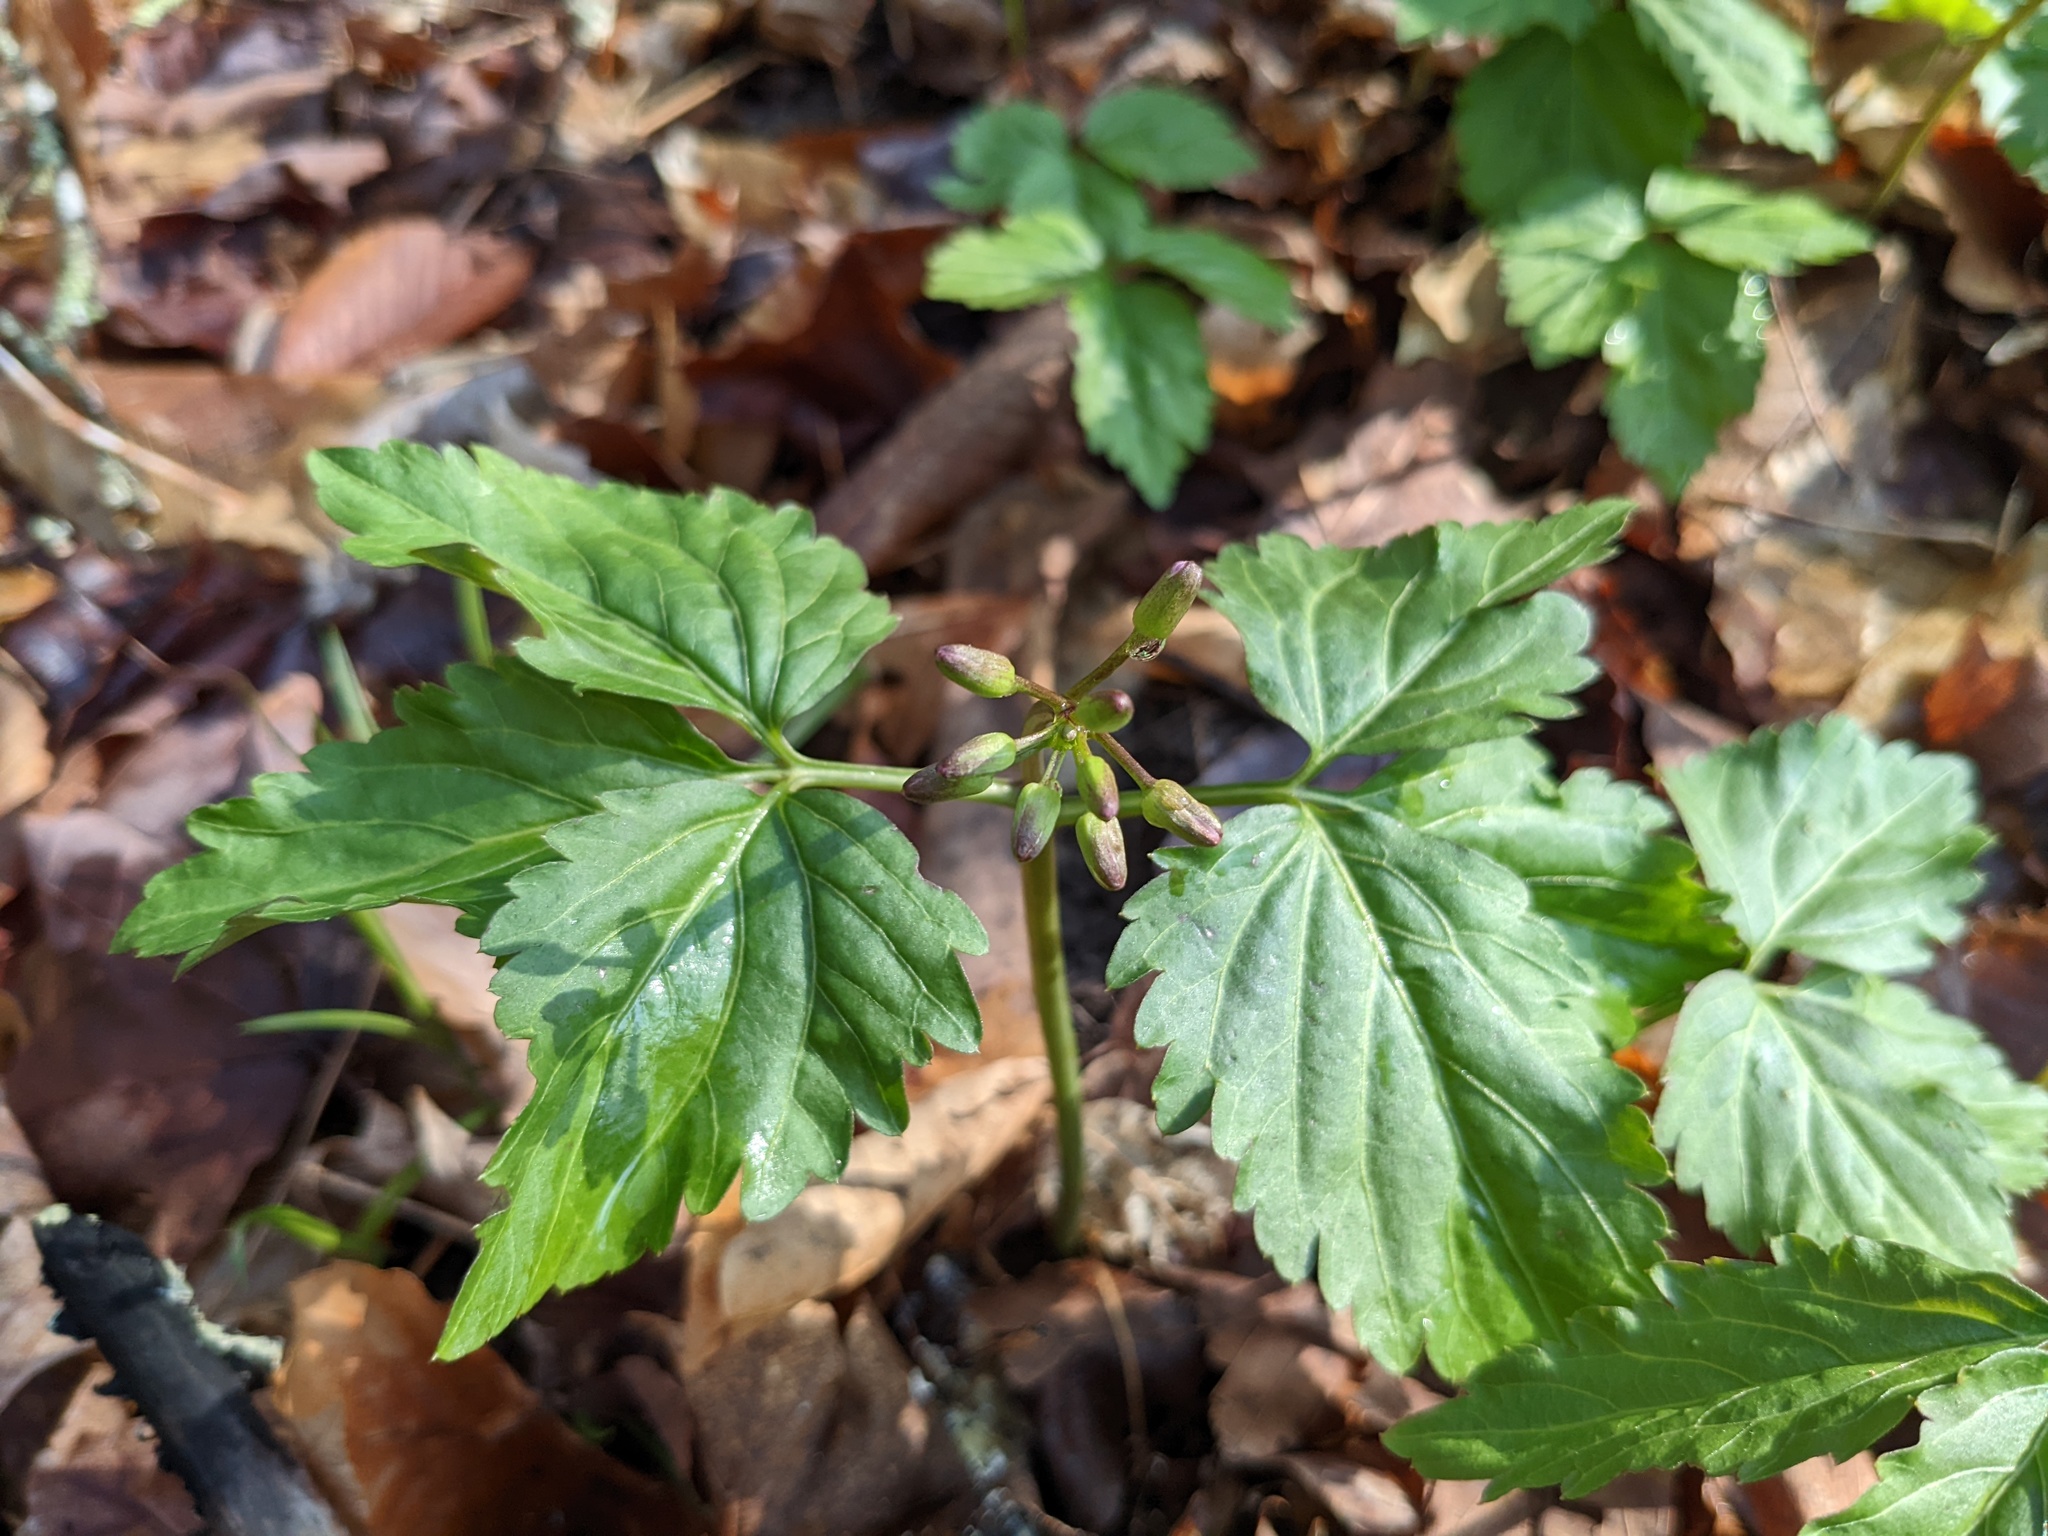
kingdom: Plantae
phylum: Tracheophyta
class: Magnoliopsida
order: Brassicales
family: Brassicaceae
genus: Cardamine
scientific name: Cardamine diphylla
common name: Broad-leaved toothwort
